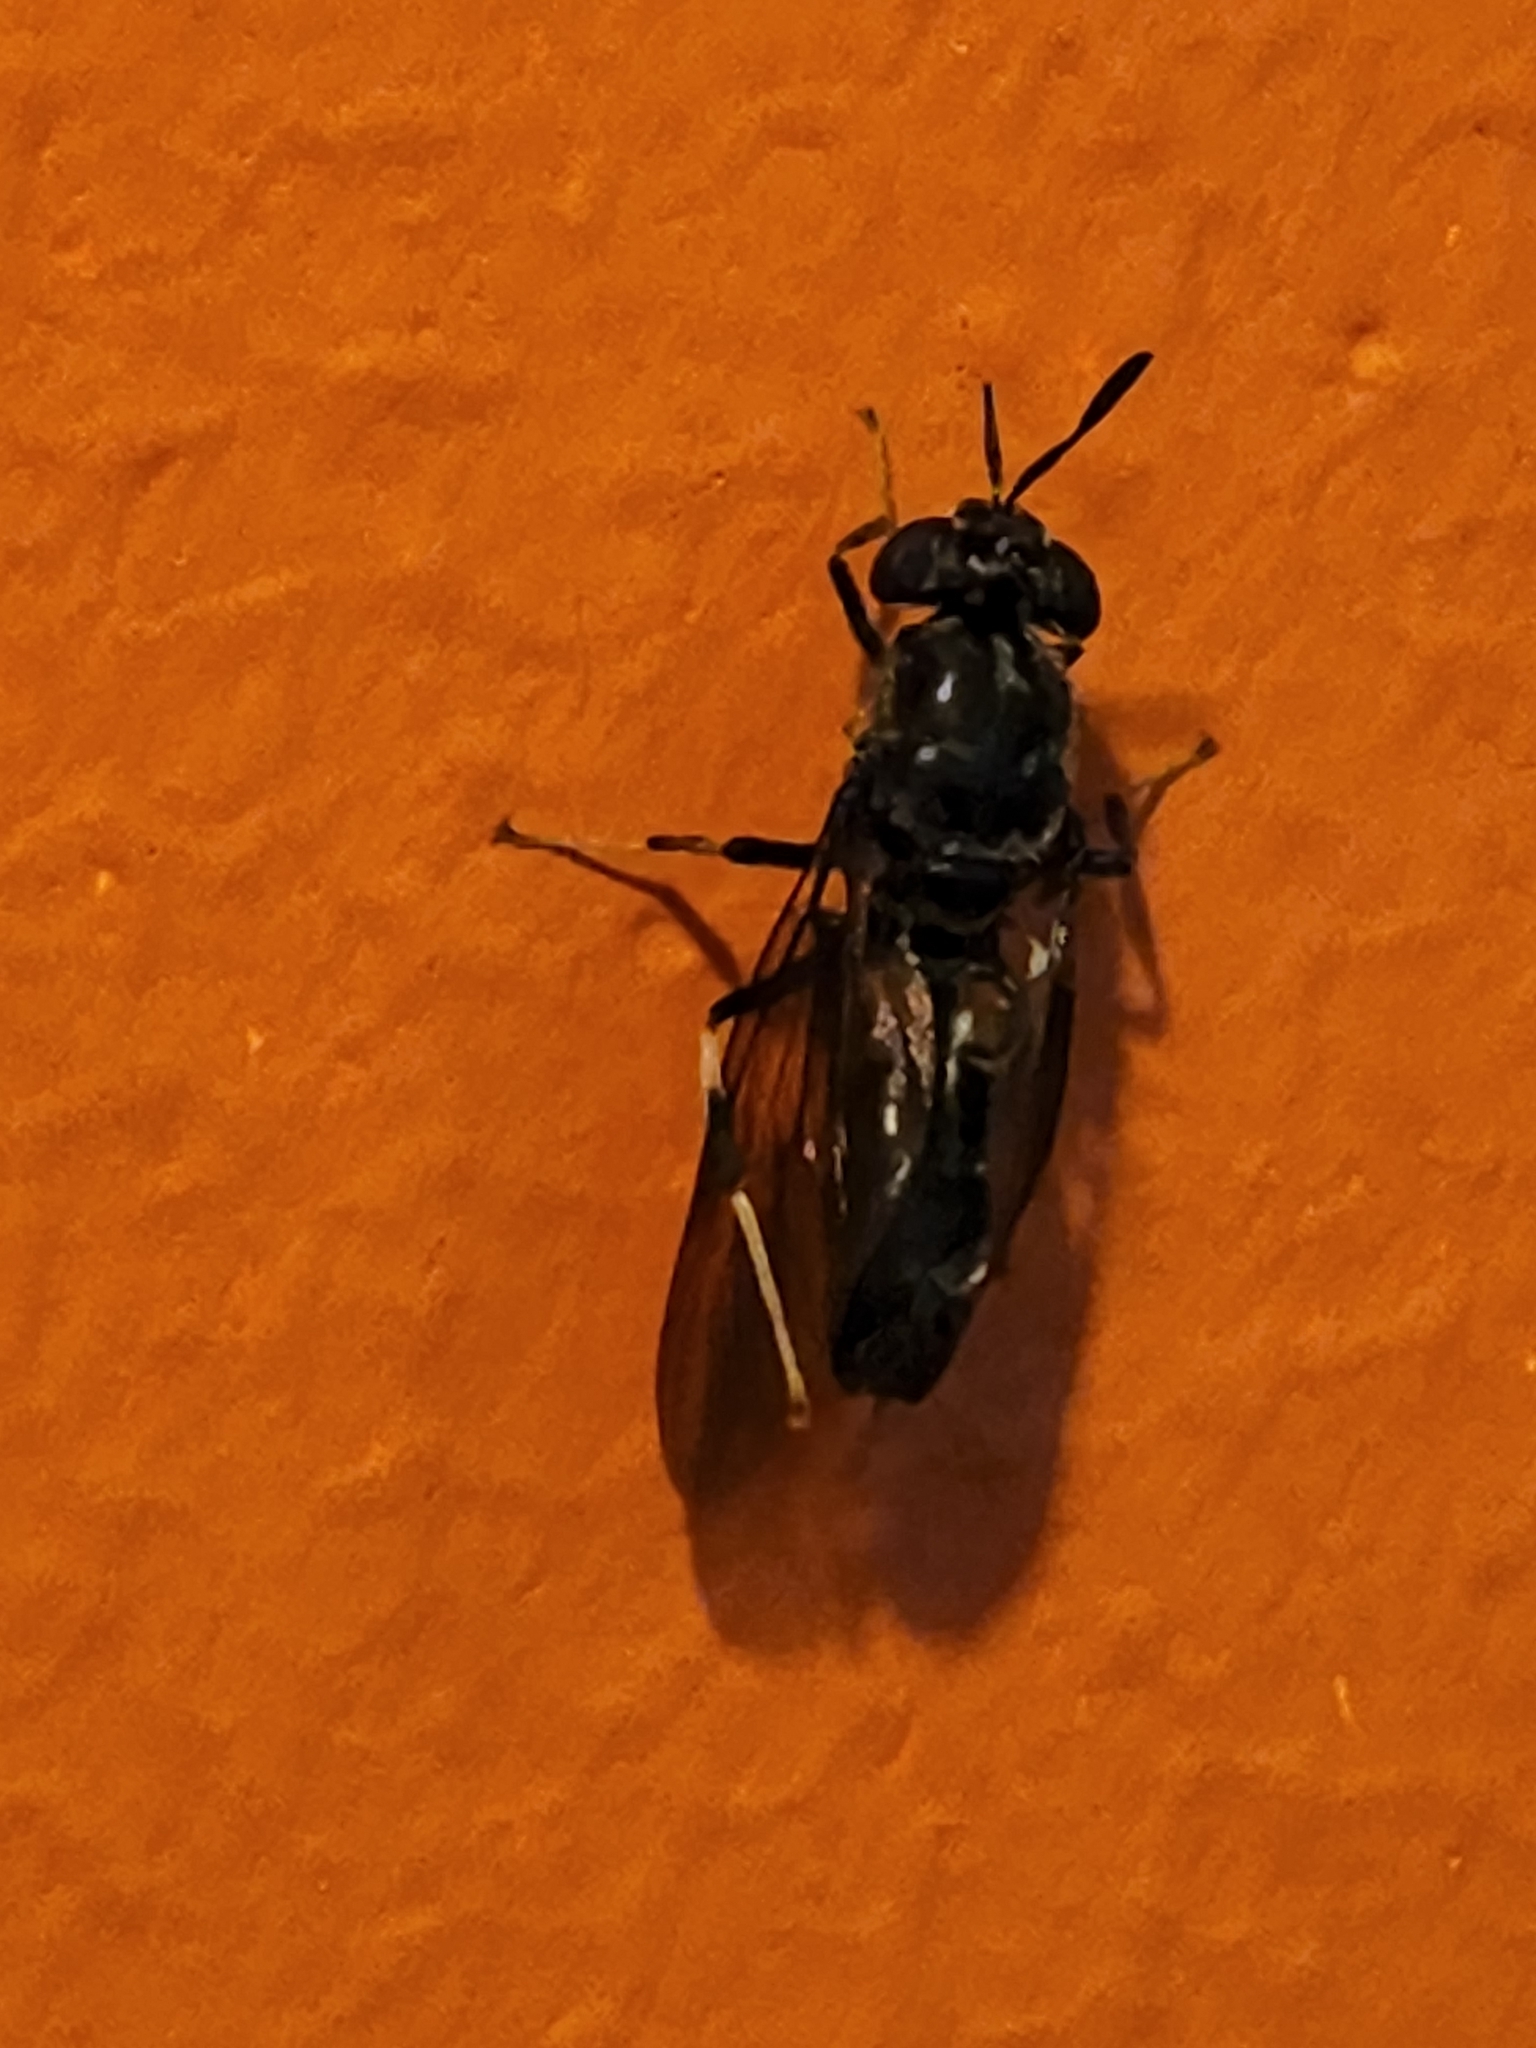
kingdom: Animalia
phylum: Arthropoda
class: Insecta
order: Diptera
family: Stratiomyidae
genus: Hermetia
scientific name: Hermetia illucens
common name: Black soldier fly
